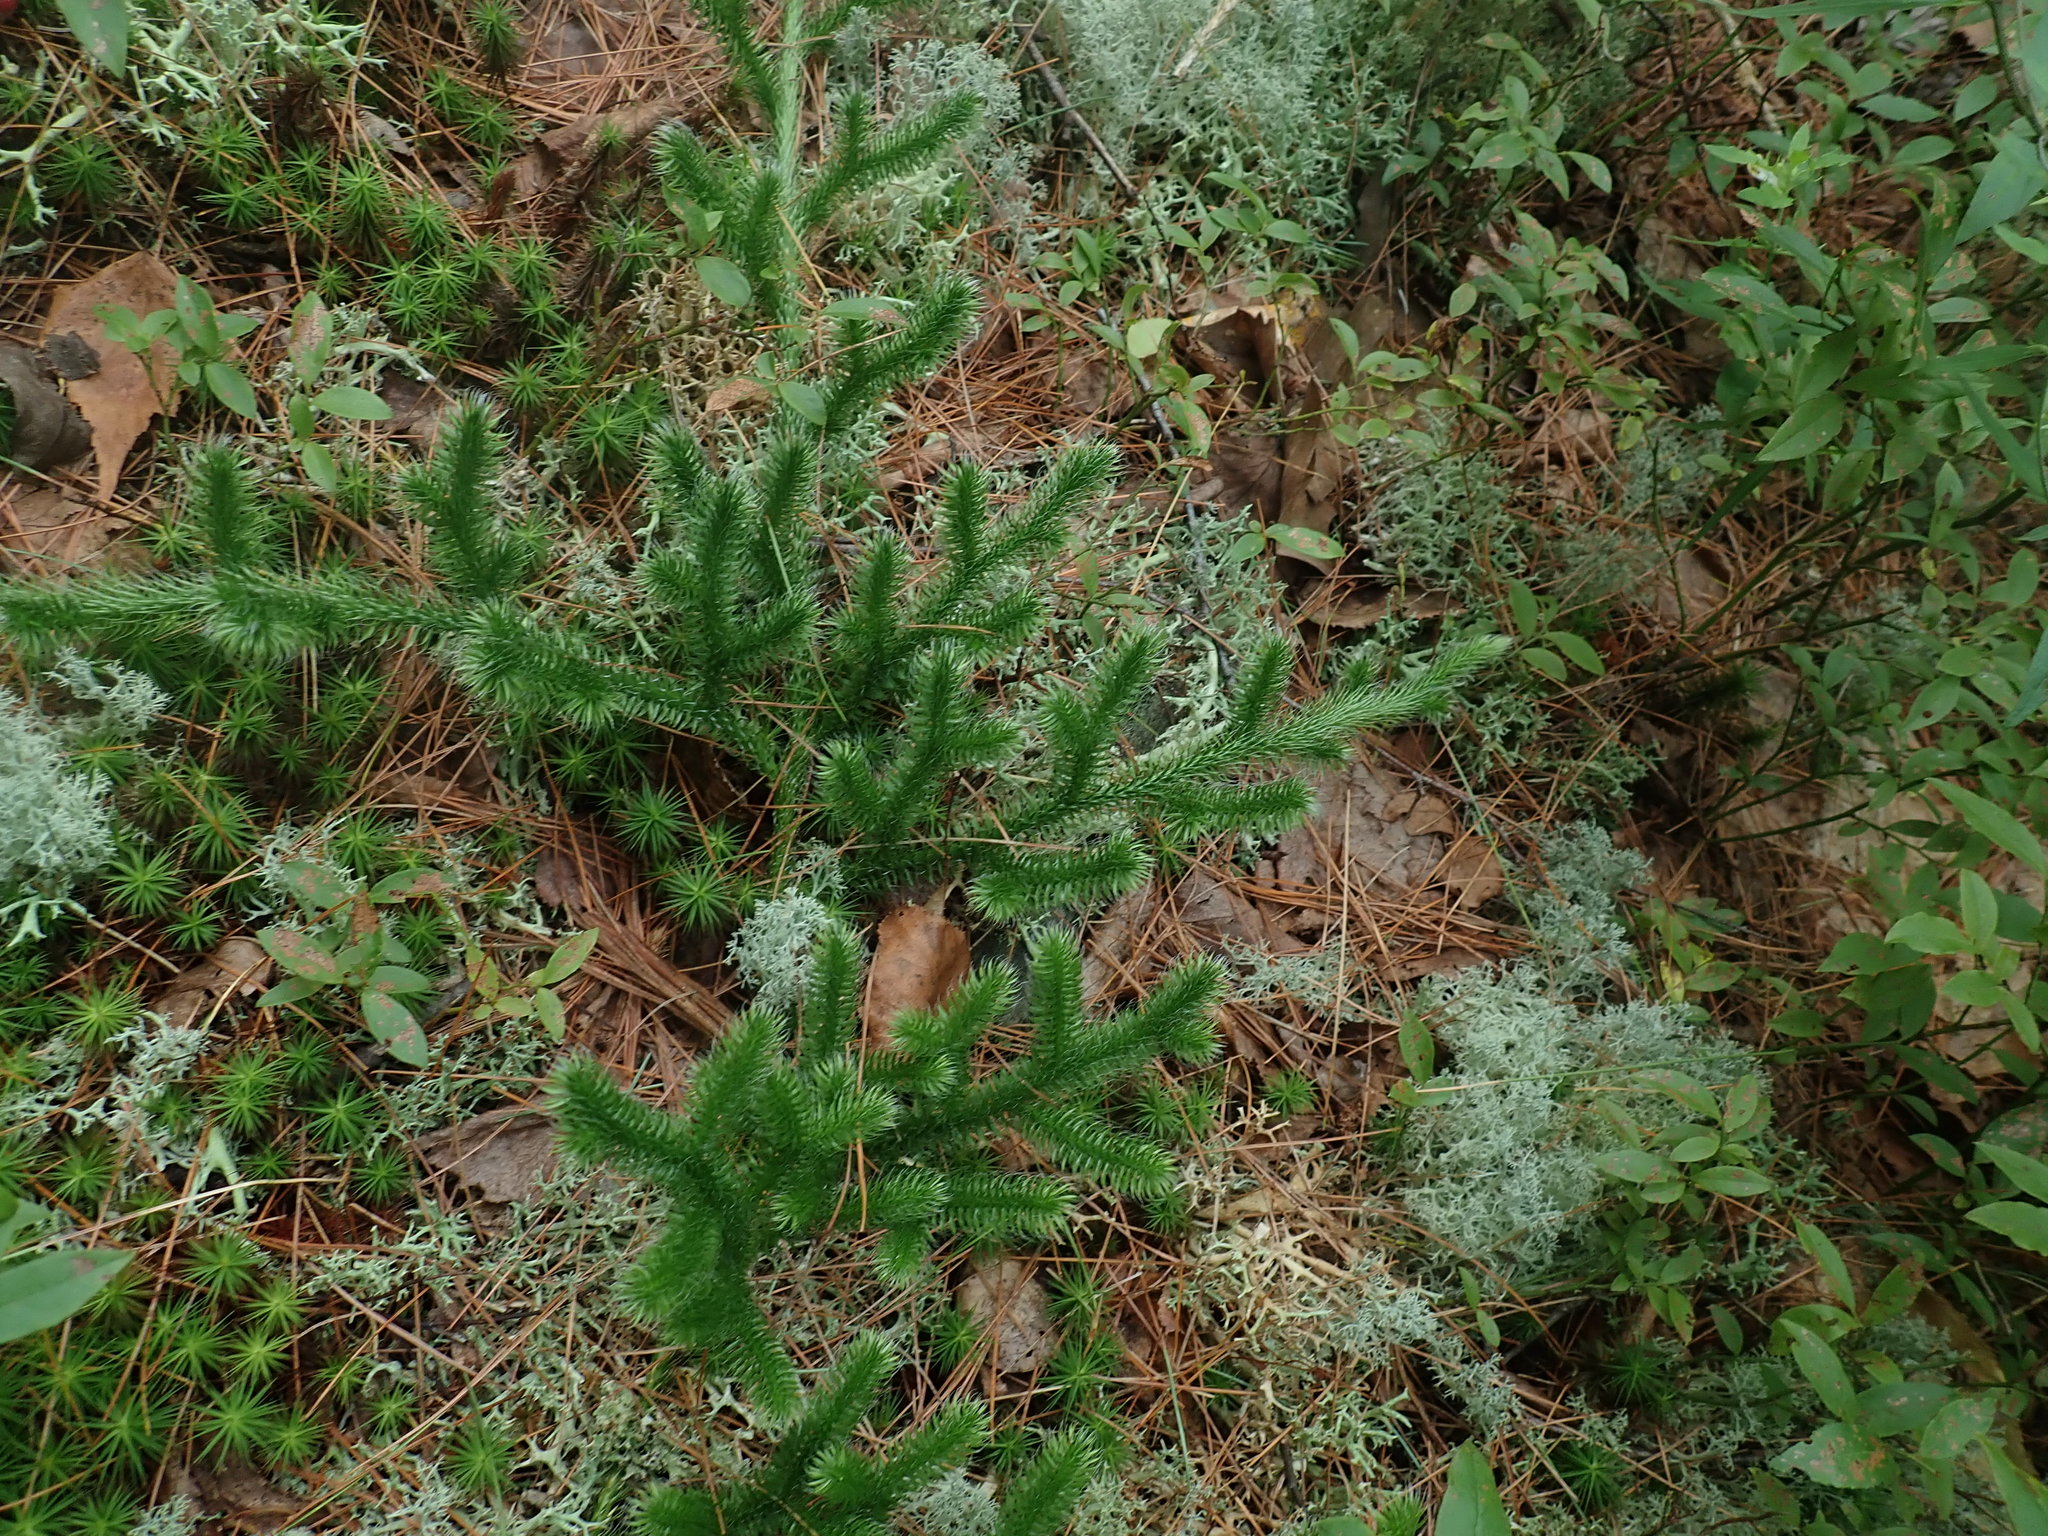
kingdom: Plantae
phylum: Tracheophyta
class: Lycopodiopsida
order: Lycopodiales
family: Lycopodiaceae
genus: Lycopodium
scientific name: Lycopodium clavatum
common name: Stag's-horn clubmoss
